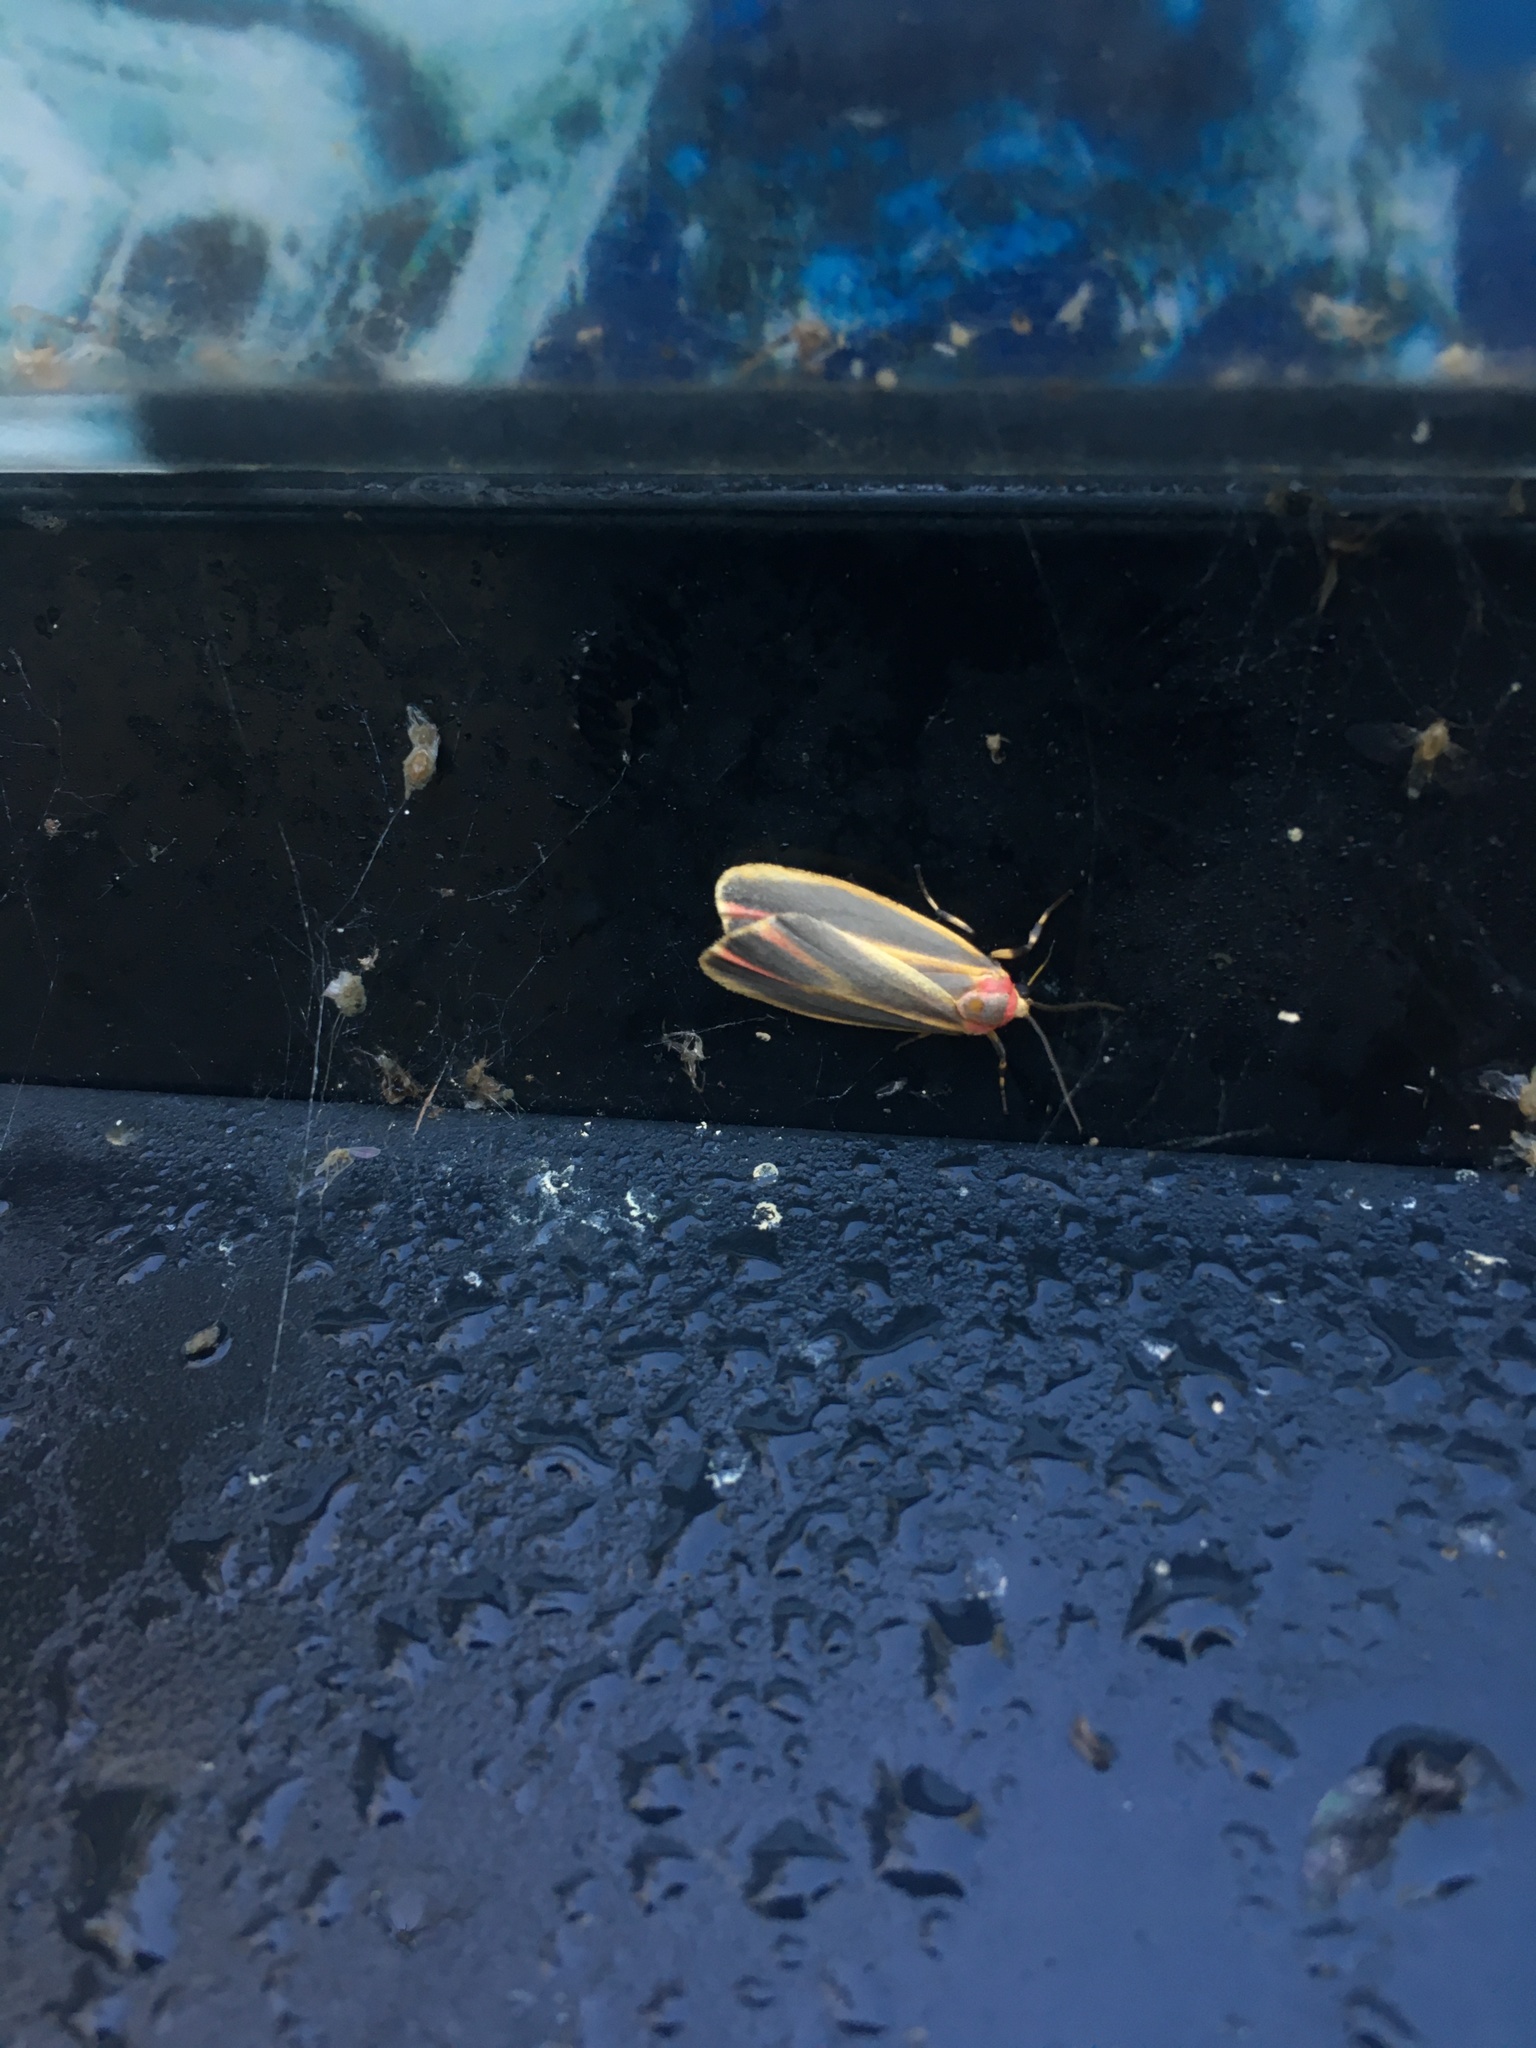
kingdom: Animalia
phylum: Arthropoda
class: Insecta
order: Lepidoptera
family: Erebidae
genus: Hypoprepia
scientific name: Hypoprepia fucosa
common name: Painted lichen moth
